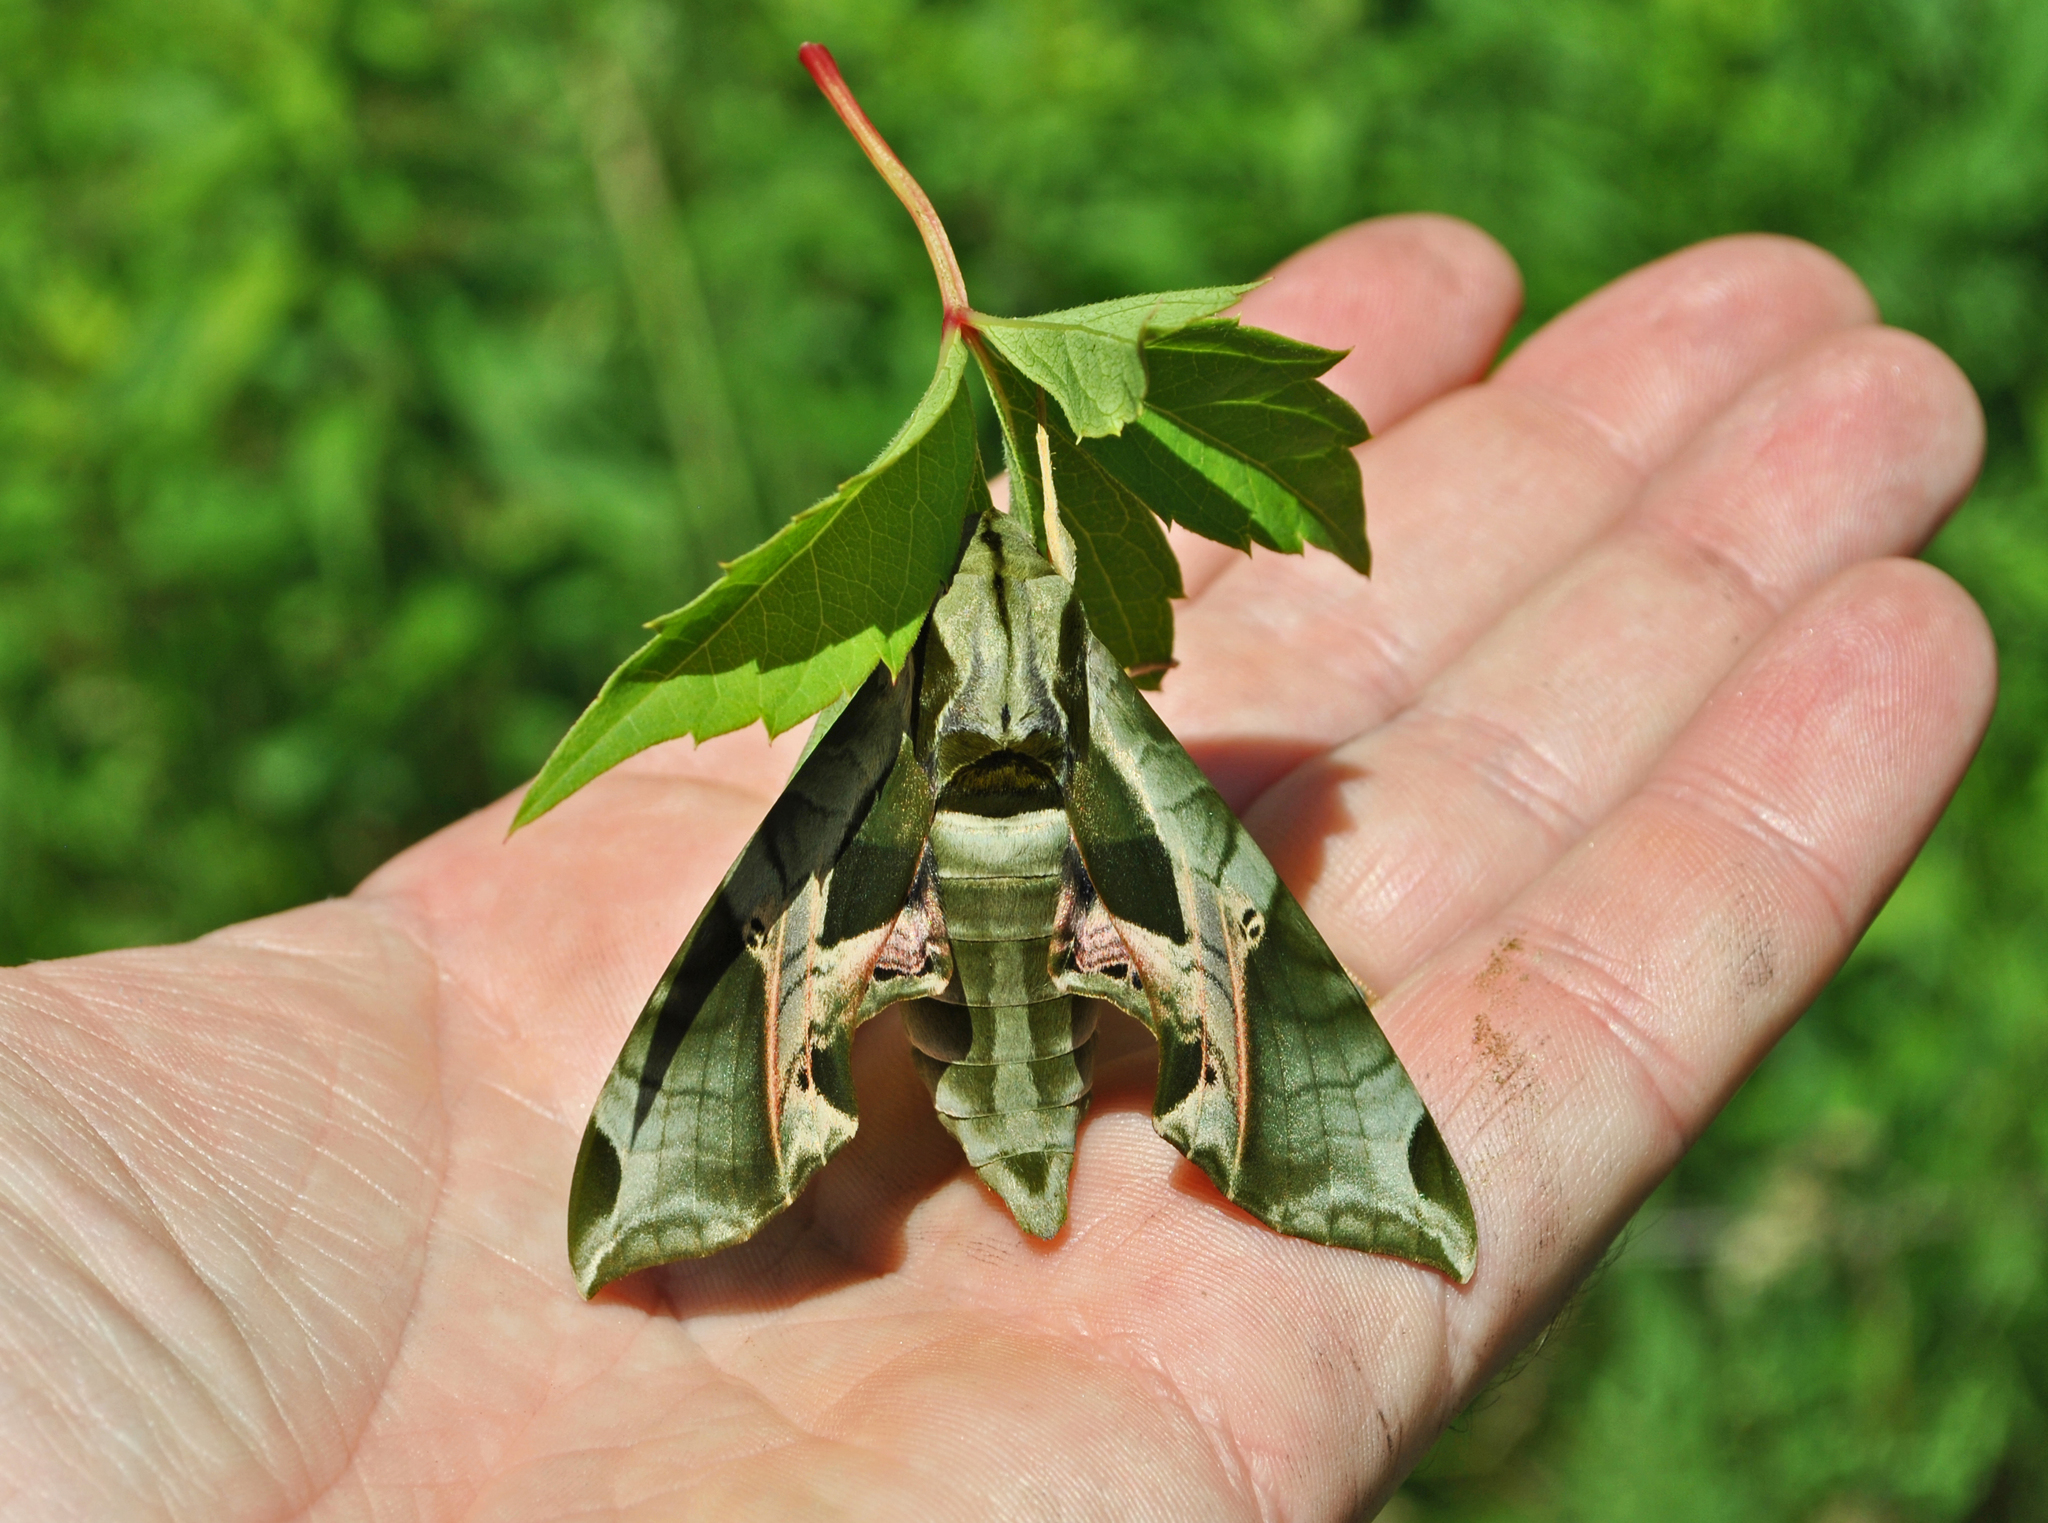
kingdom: Animalia
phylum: Arthropoda
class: Insecta
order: Lepidoptera
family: Sphingidae
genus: Eumorpha
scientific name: Eumorpha pandorus
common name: Pandora sphinx
